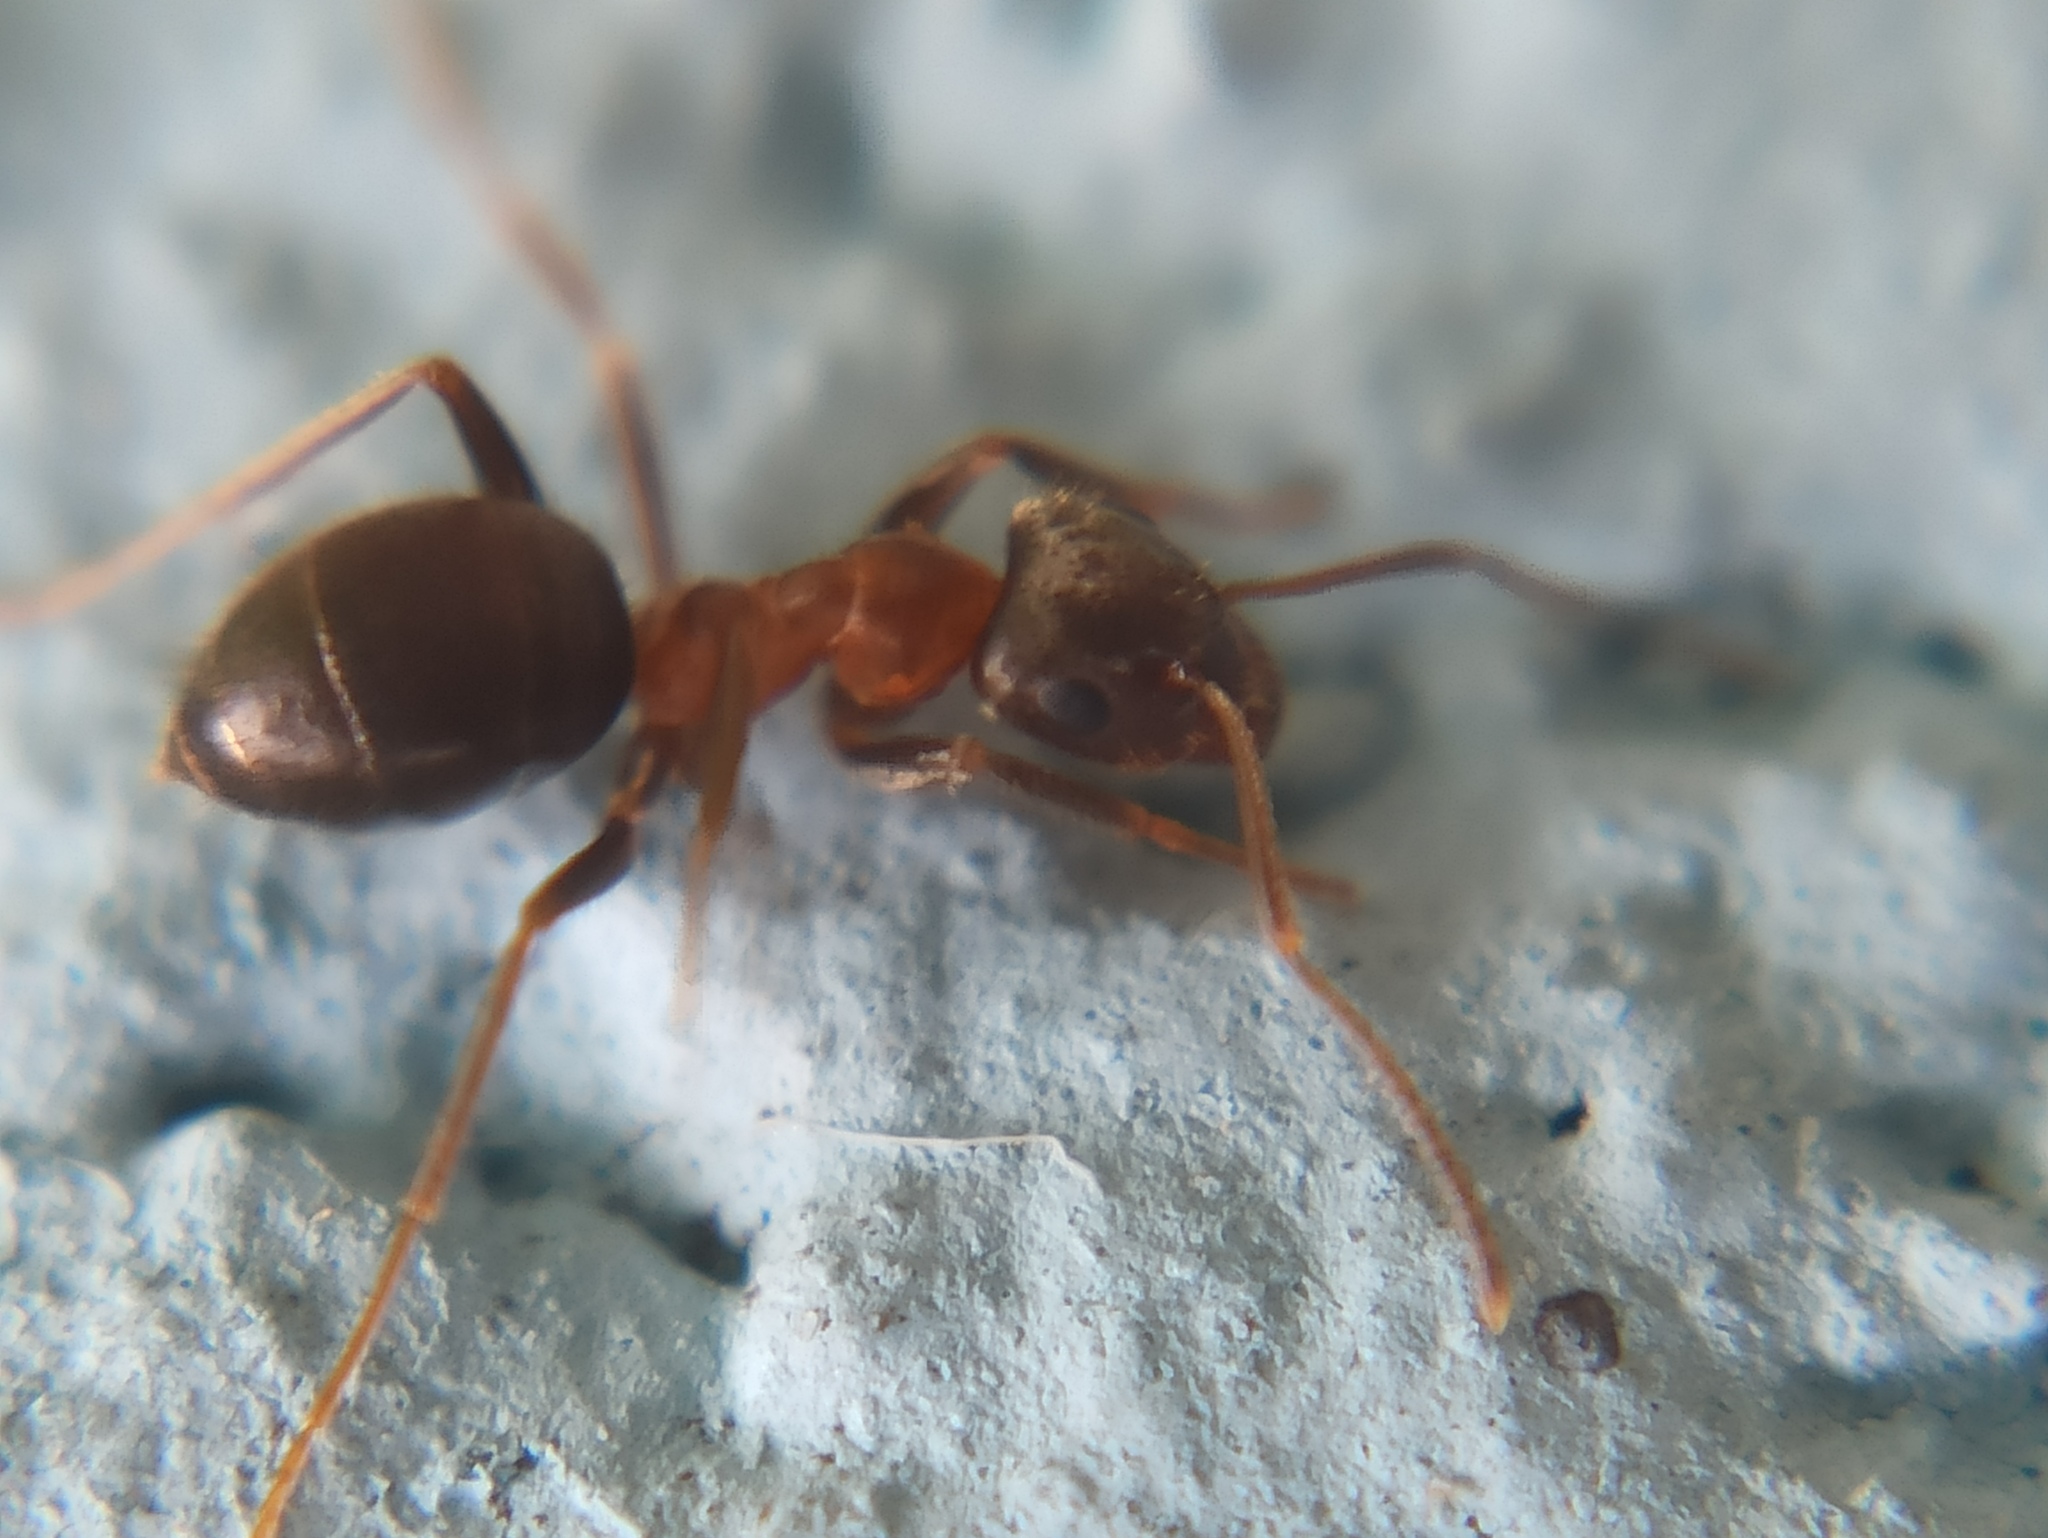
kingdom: Animalia
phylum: Arthropoda
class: Insecta
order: Hymenoptera
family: Formicidae
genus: Lasius
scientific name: Lasius emarginatus
